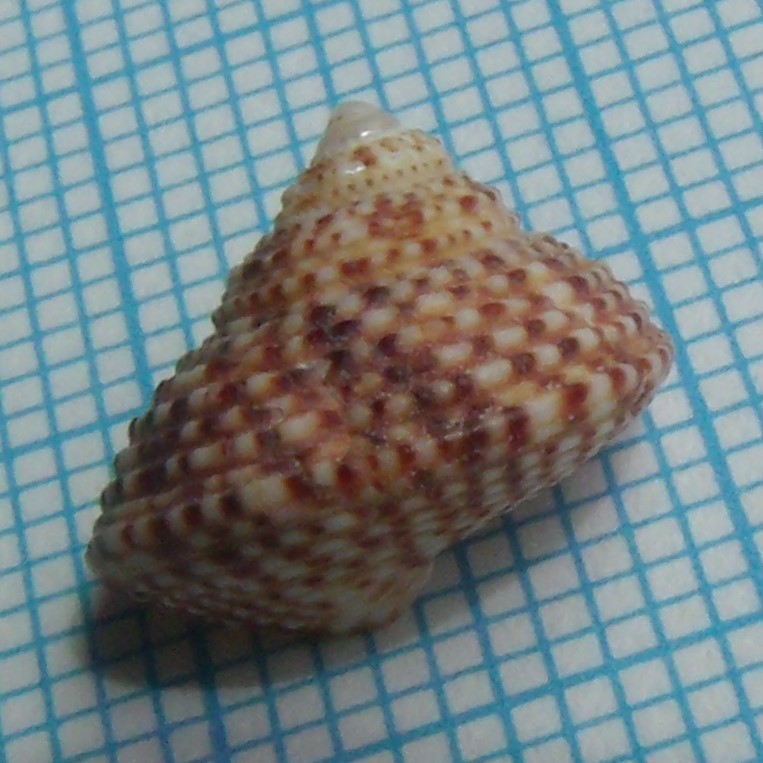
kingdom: Animalia
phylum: Mollusca
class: Gastropoda
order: Trochida
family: Calliostomatidae
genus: Maurea
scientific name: Maurea punctulata
